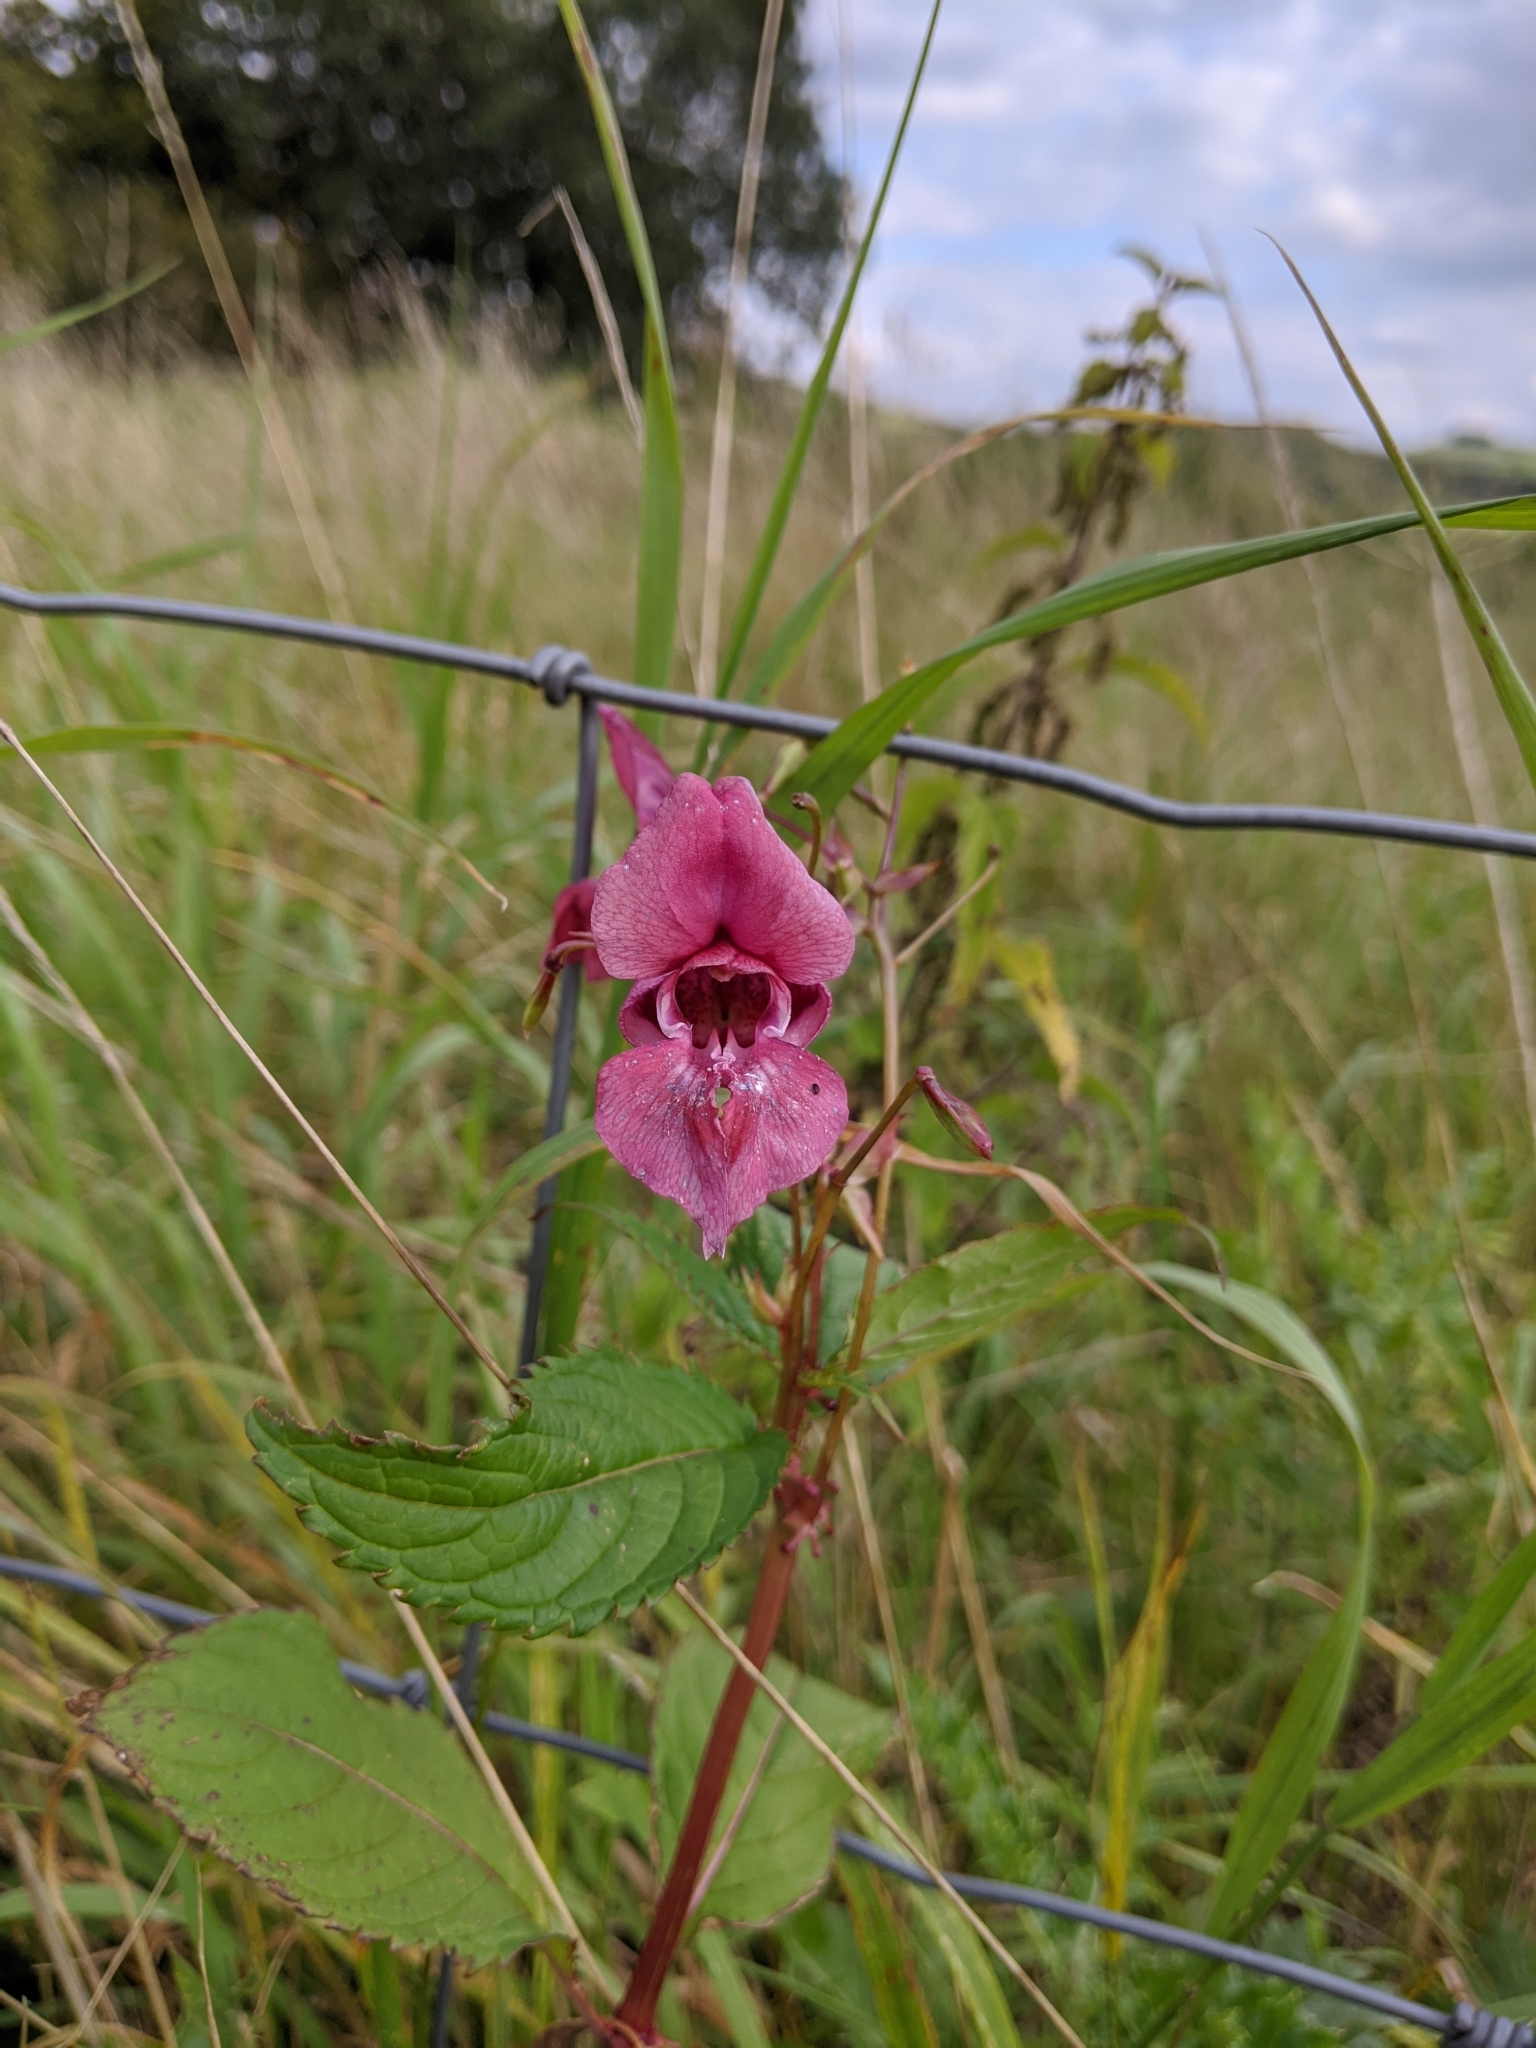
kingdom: Plantae
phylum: Tracheophyta
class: Magnoliopsida
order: Ericales
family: Balsaminaceae
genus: Impatiens
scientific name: Impatiens glandulifera
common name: Himalayan balsam
